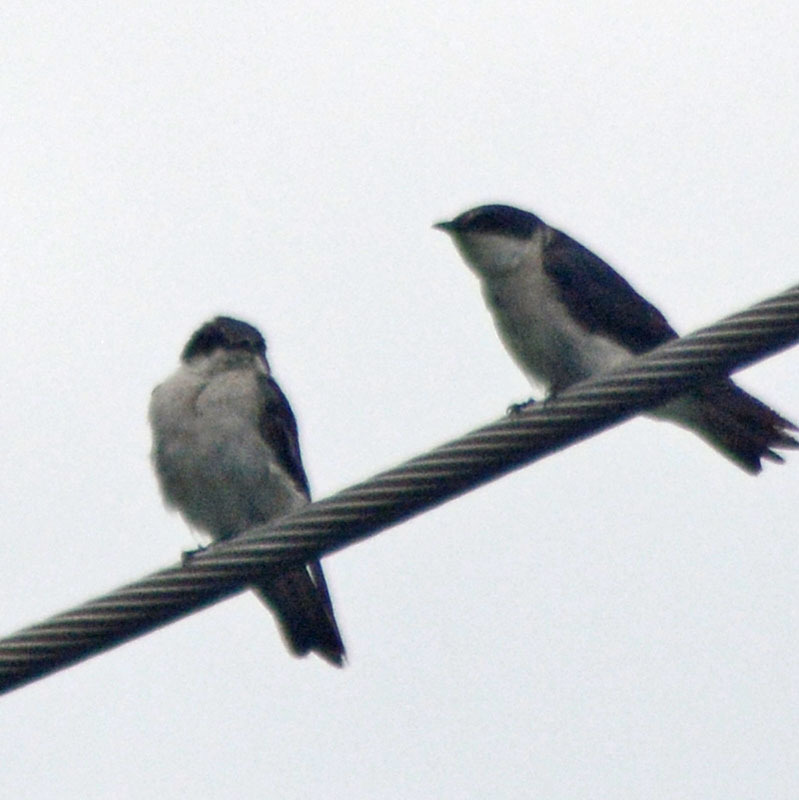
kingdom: Animalia
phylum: Chordata
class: Aves
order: Passeriformes
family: Hirundinidae
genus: Tachycineta
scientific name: Tachycineta albilinea
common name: Mangrove swallow
